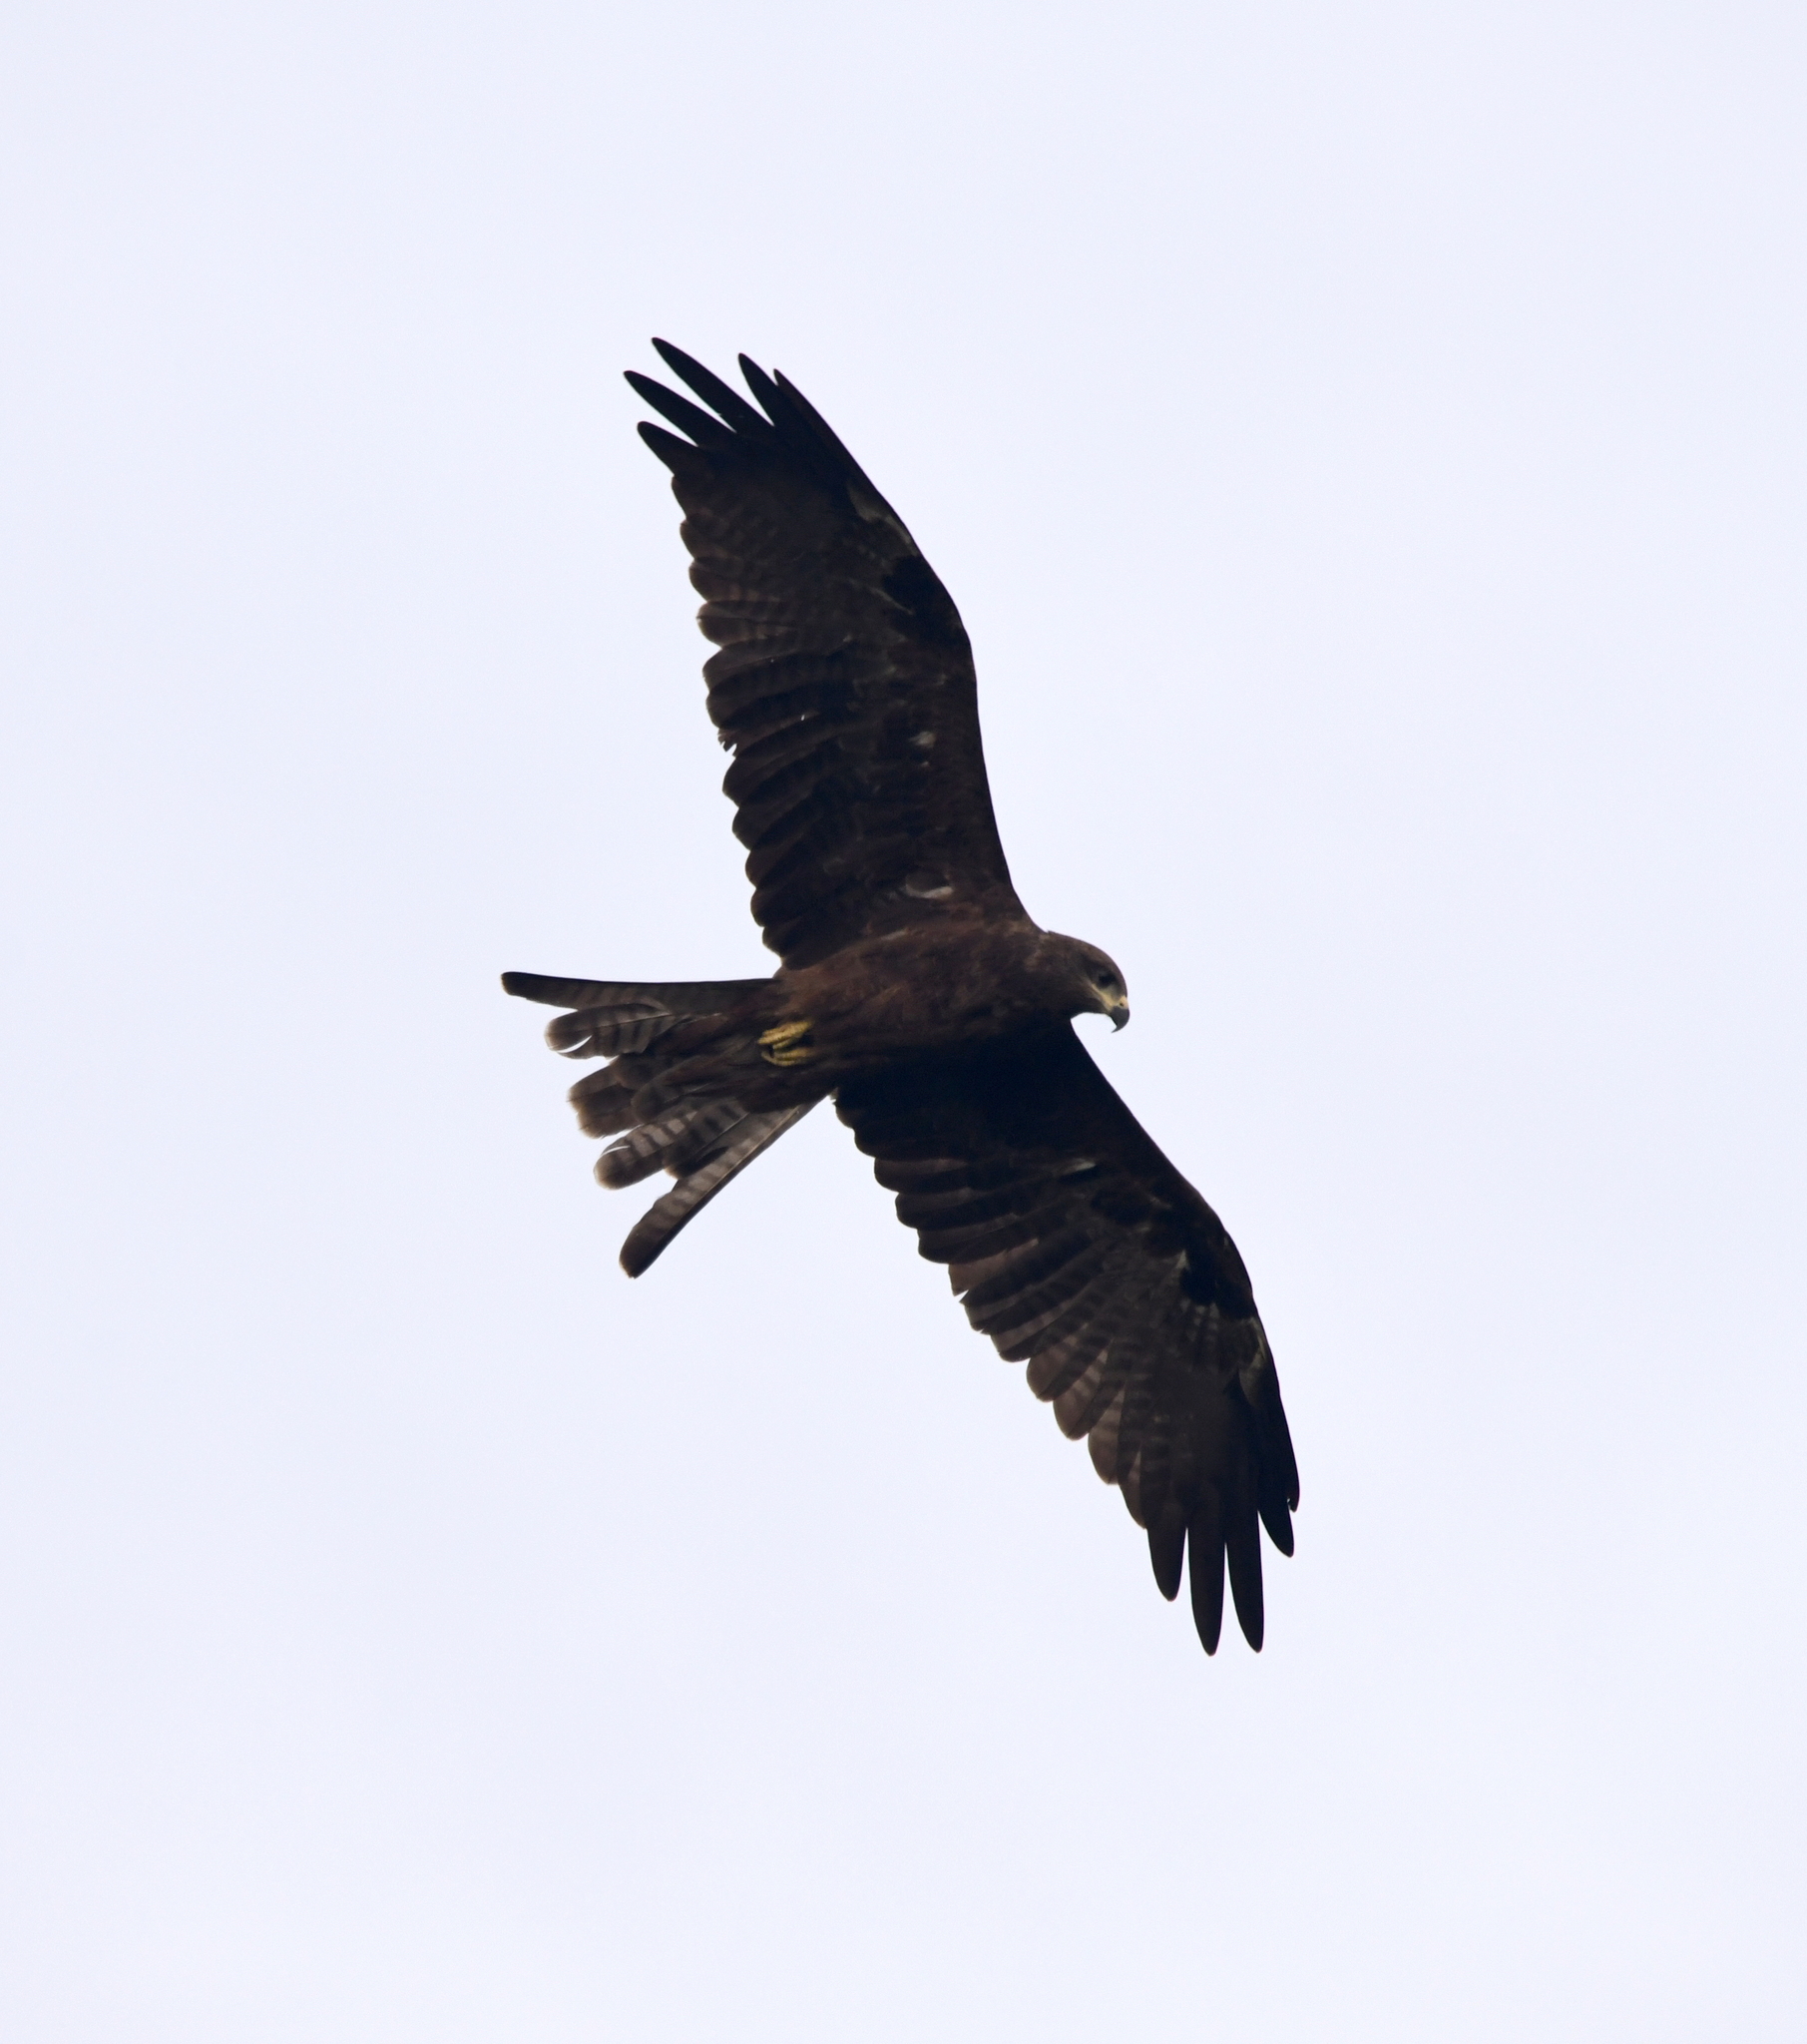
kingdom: Animalia
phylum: Chordata
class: Aves
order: Accipitriformes
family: Accipitridae
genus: Milvus
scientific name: Milvus migrans
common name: Black kite
